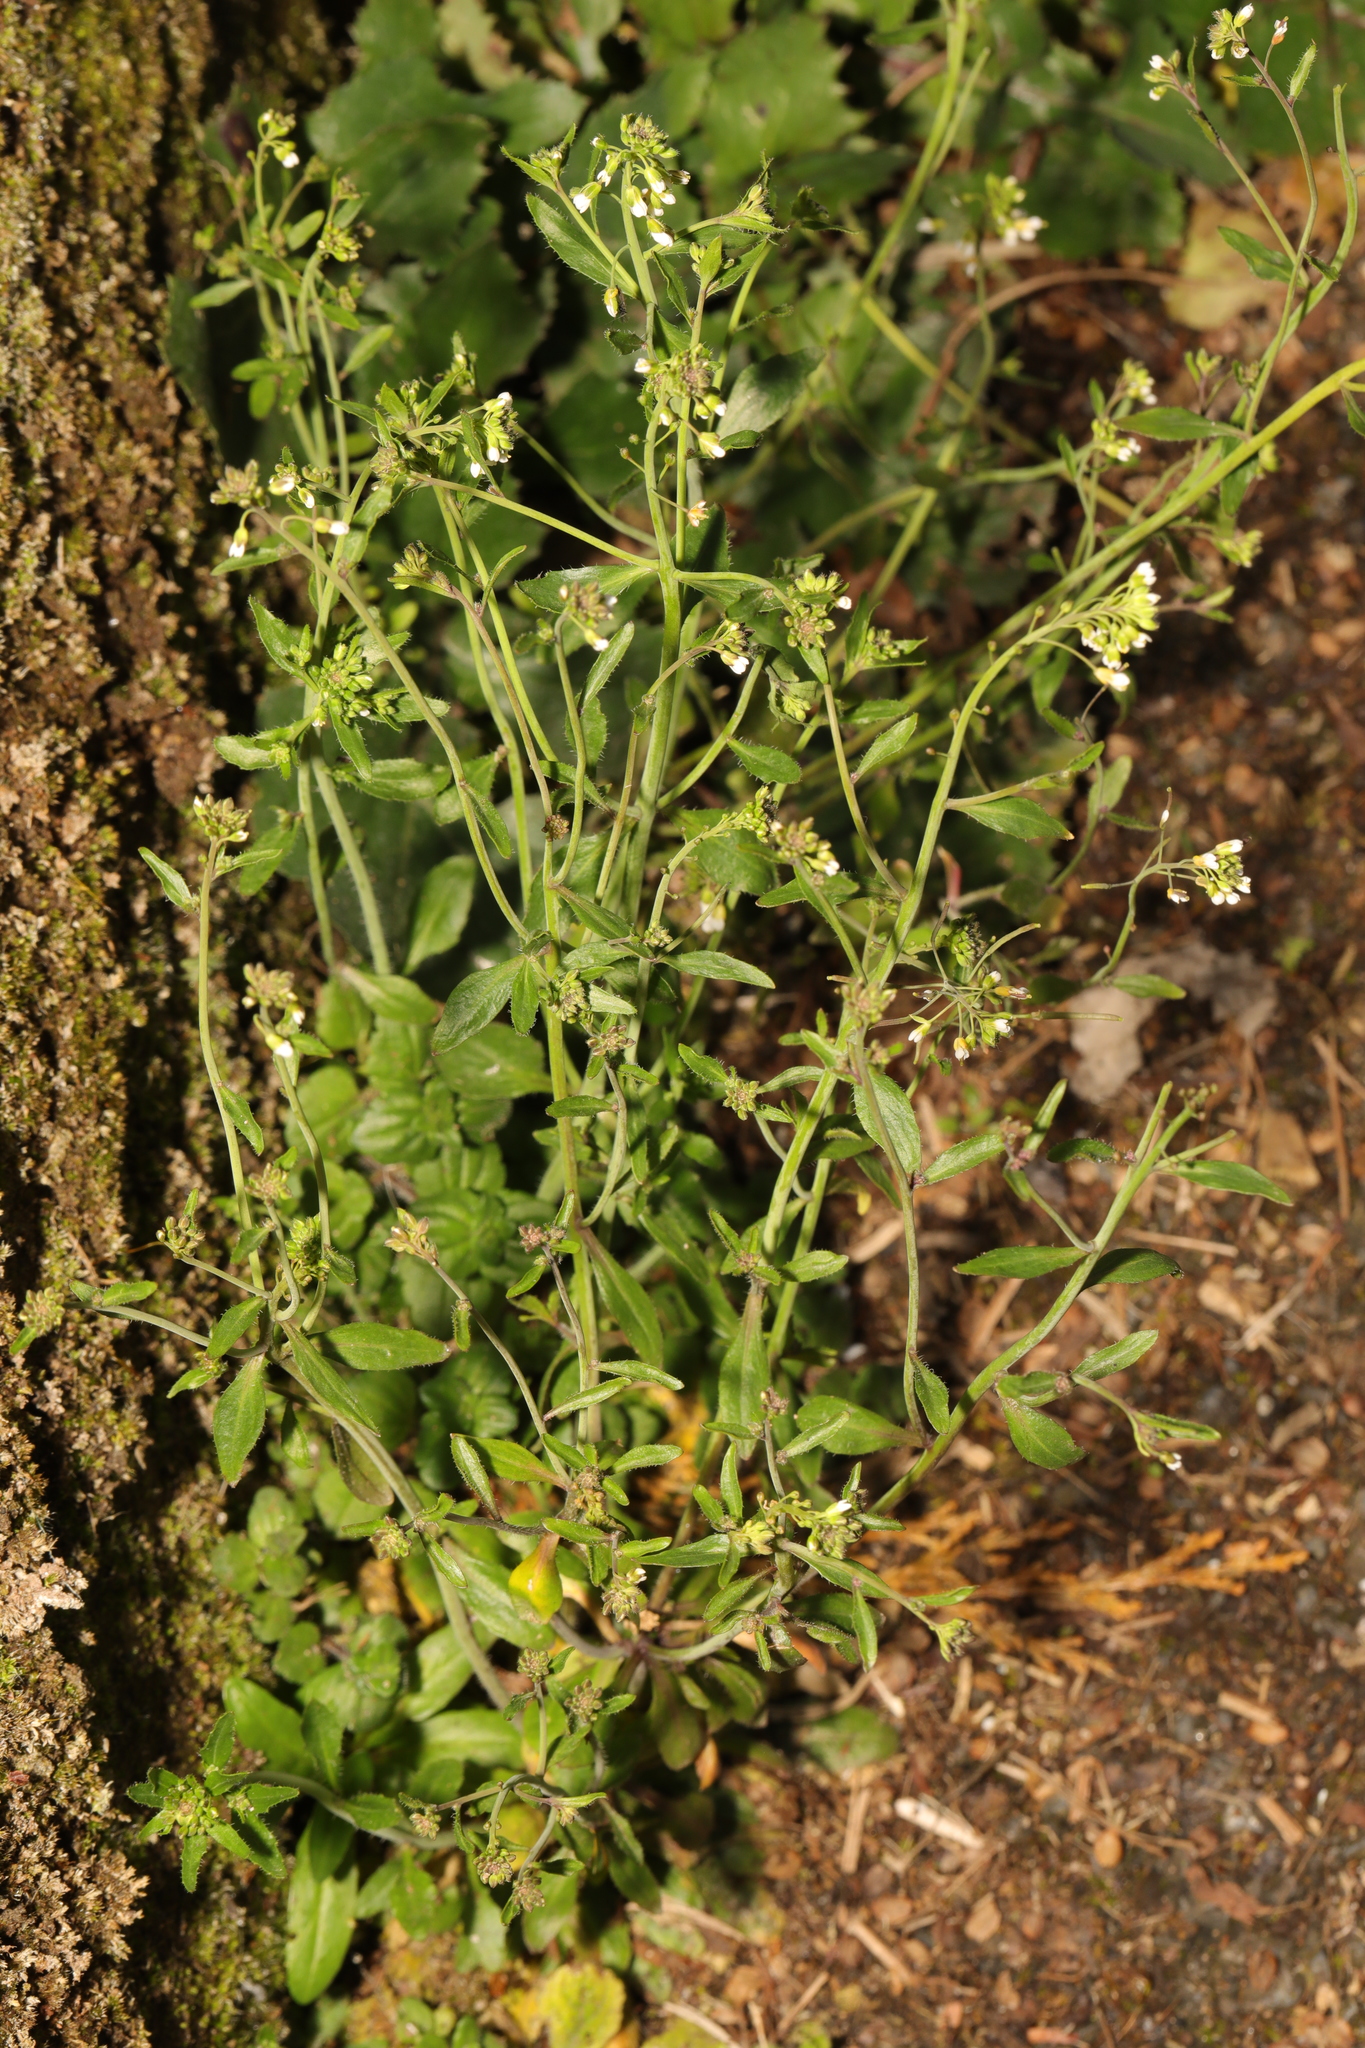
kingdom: Plantae
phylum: Tracheophyta
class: Magnoliopsida
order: Brassicales
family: Brassicaceae
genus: Arabidopsis
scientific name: Arabidopsis thaliana
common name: Thale cress
